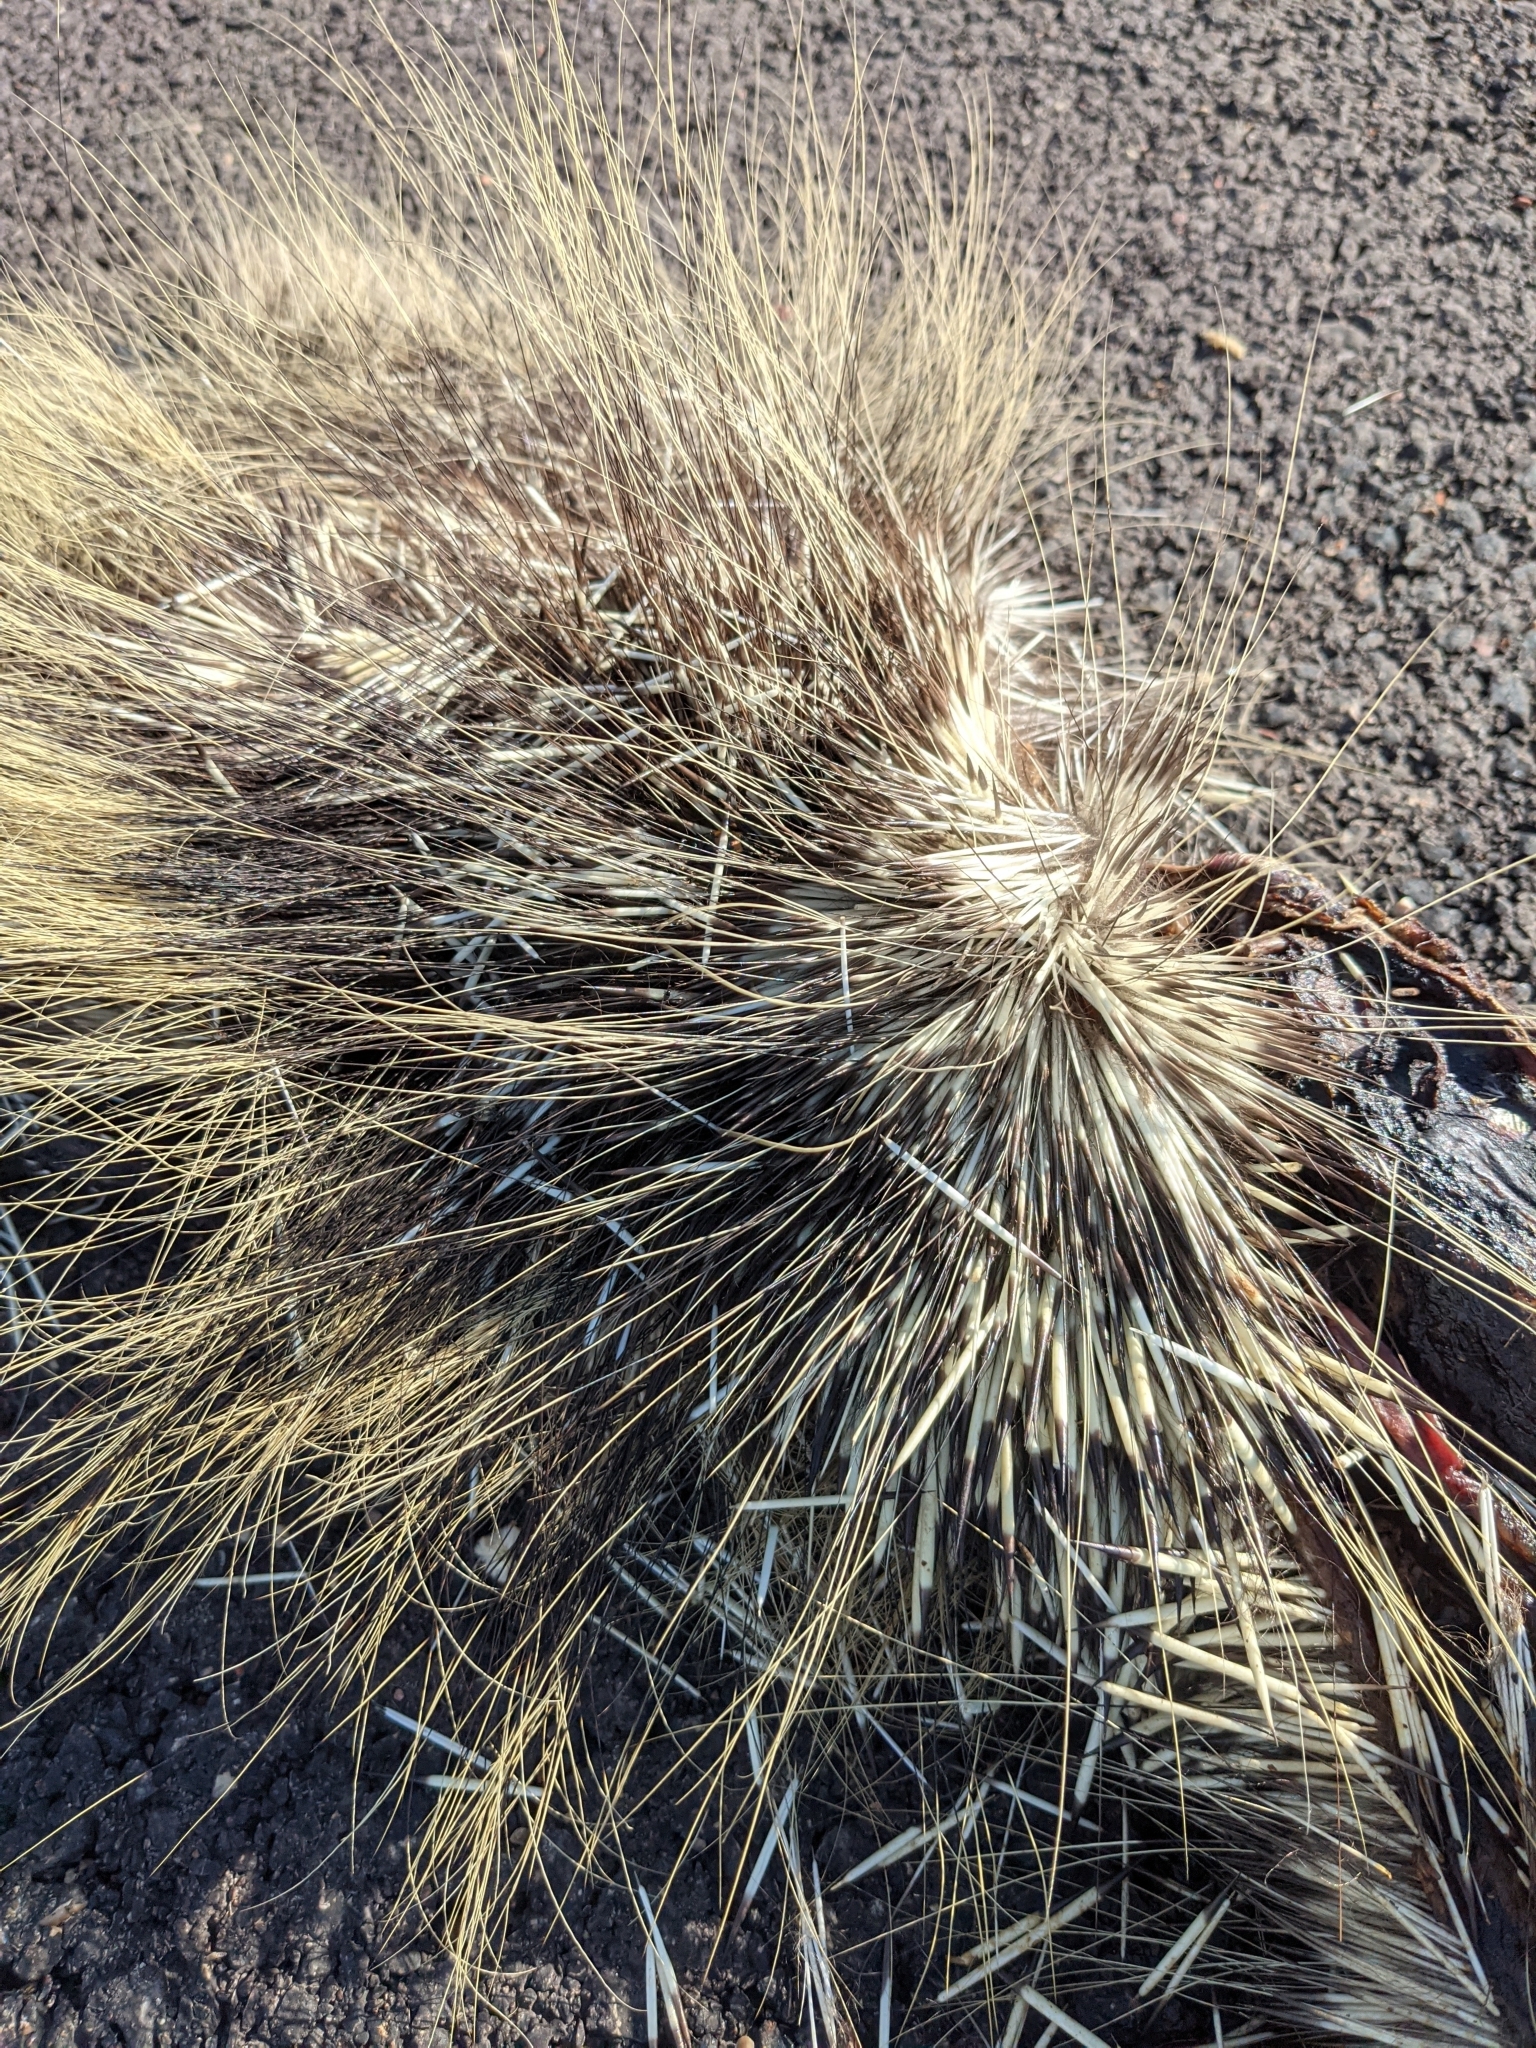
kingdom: Animalia
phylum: Chordata
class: Mammalia
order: Rodentia
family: Erethizontidae
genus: Erethizon
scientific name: Erethizon dorsatus
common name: North american porcupine
